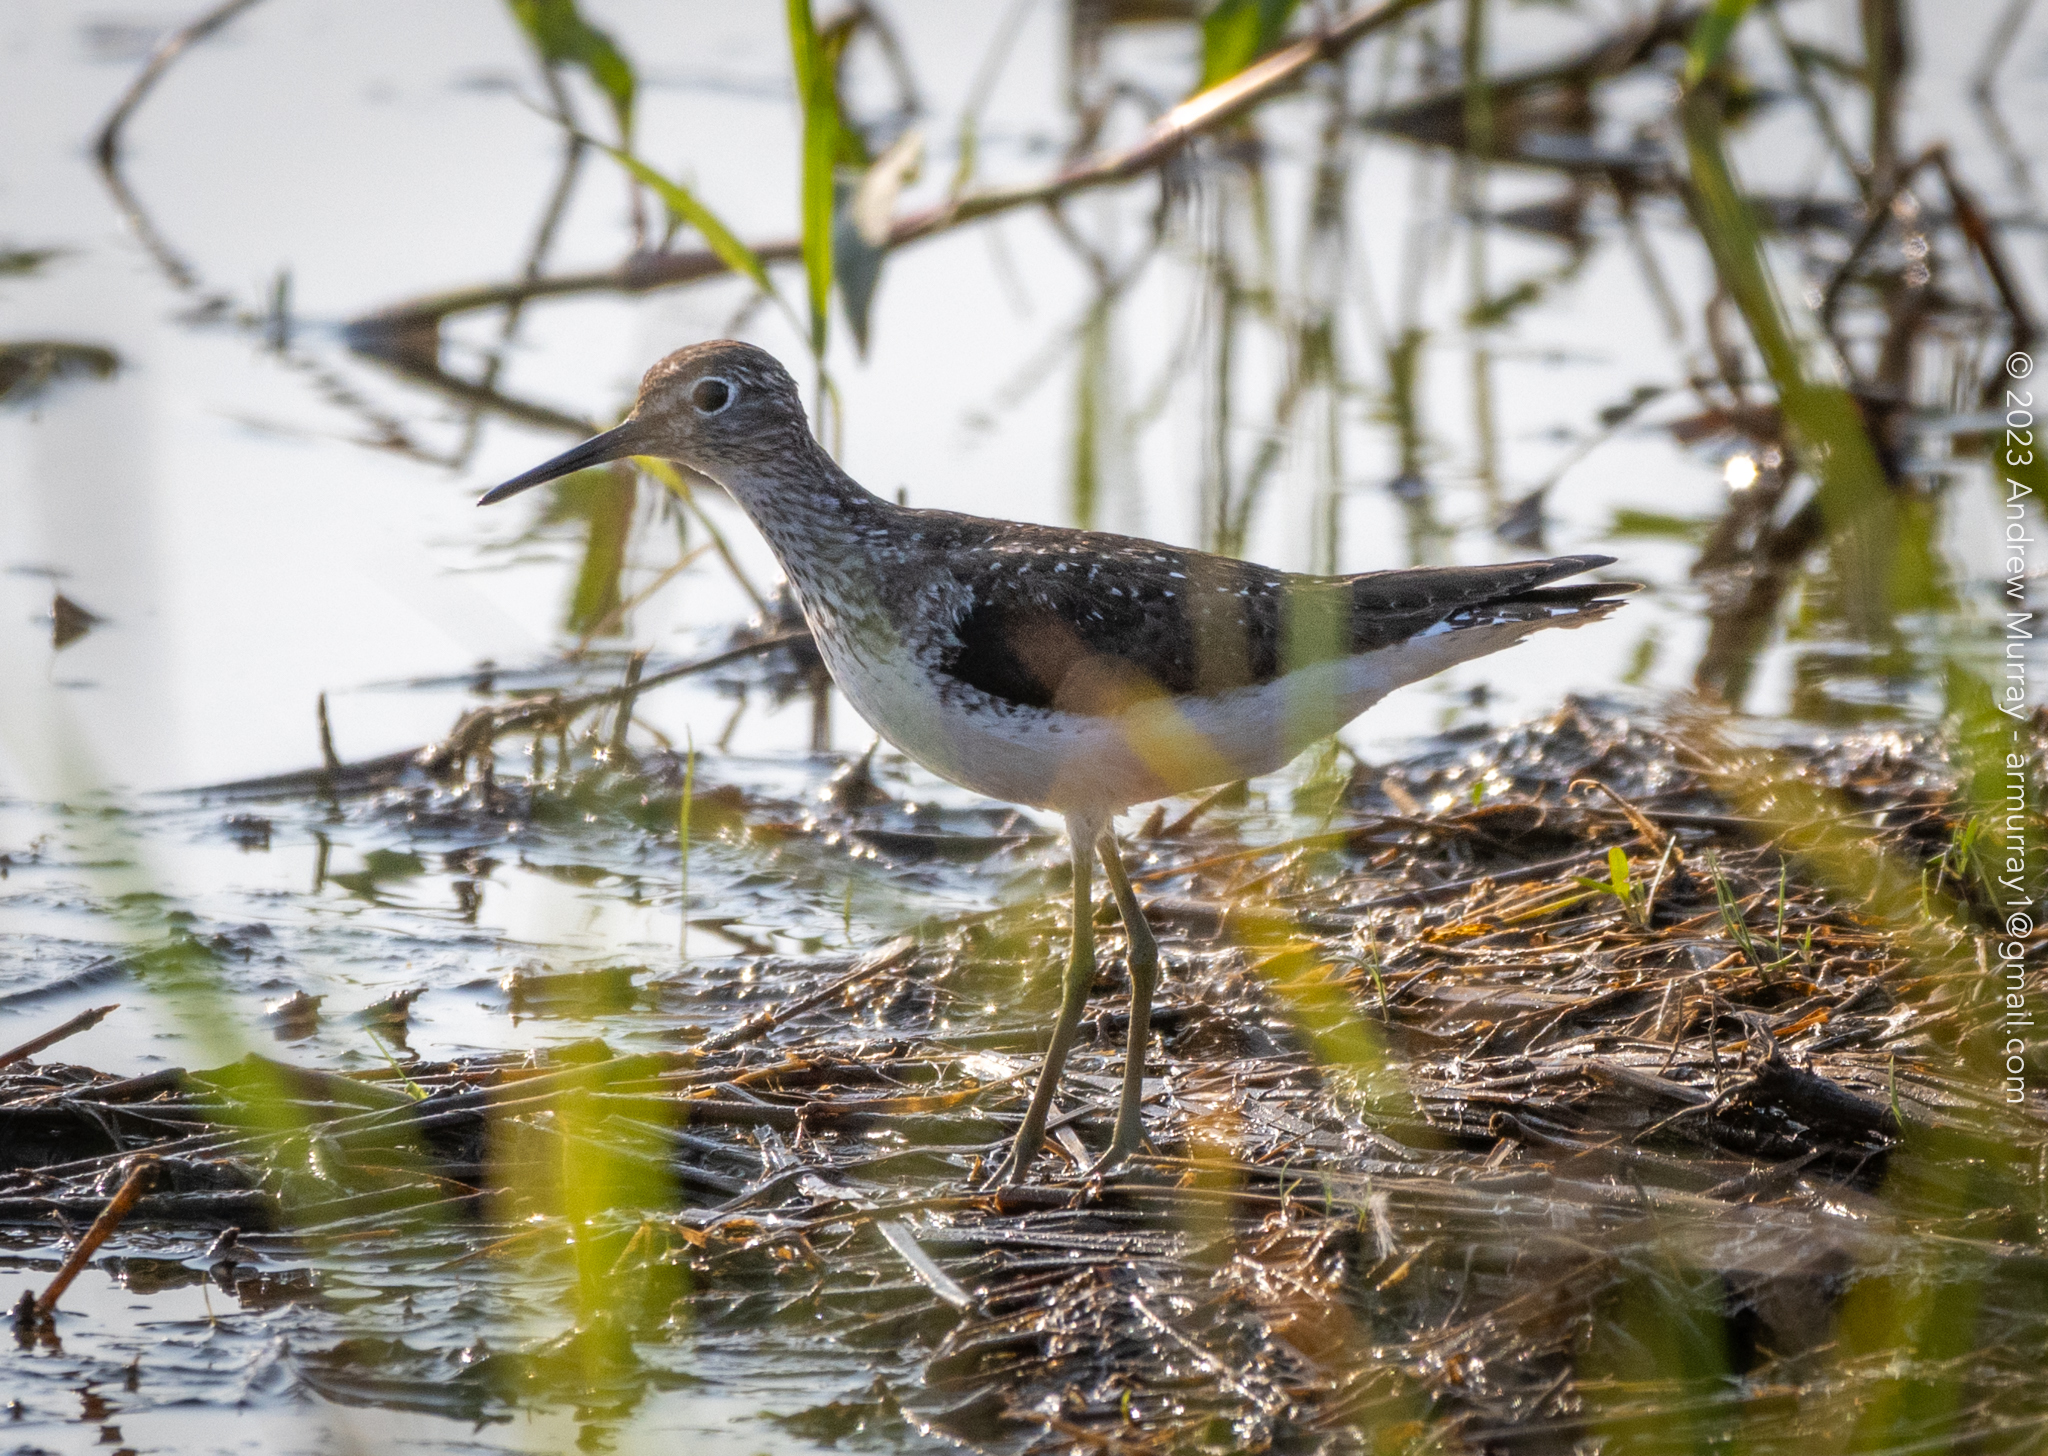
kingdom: Animalia
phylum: Chordata
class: Aves
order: Charadriiformes
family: Scolopacidae
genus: Tringa
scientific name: Tringa solitaria
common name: Solitary sandpiper
